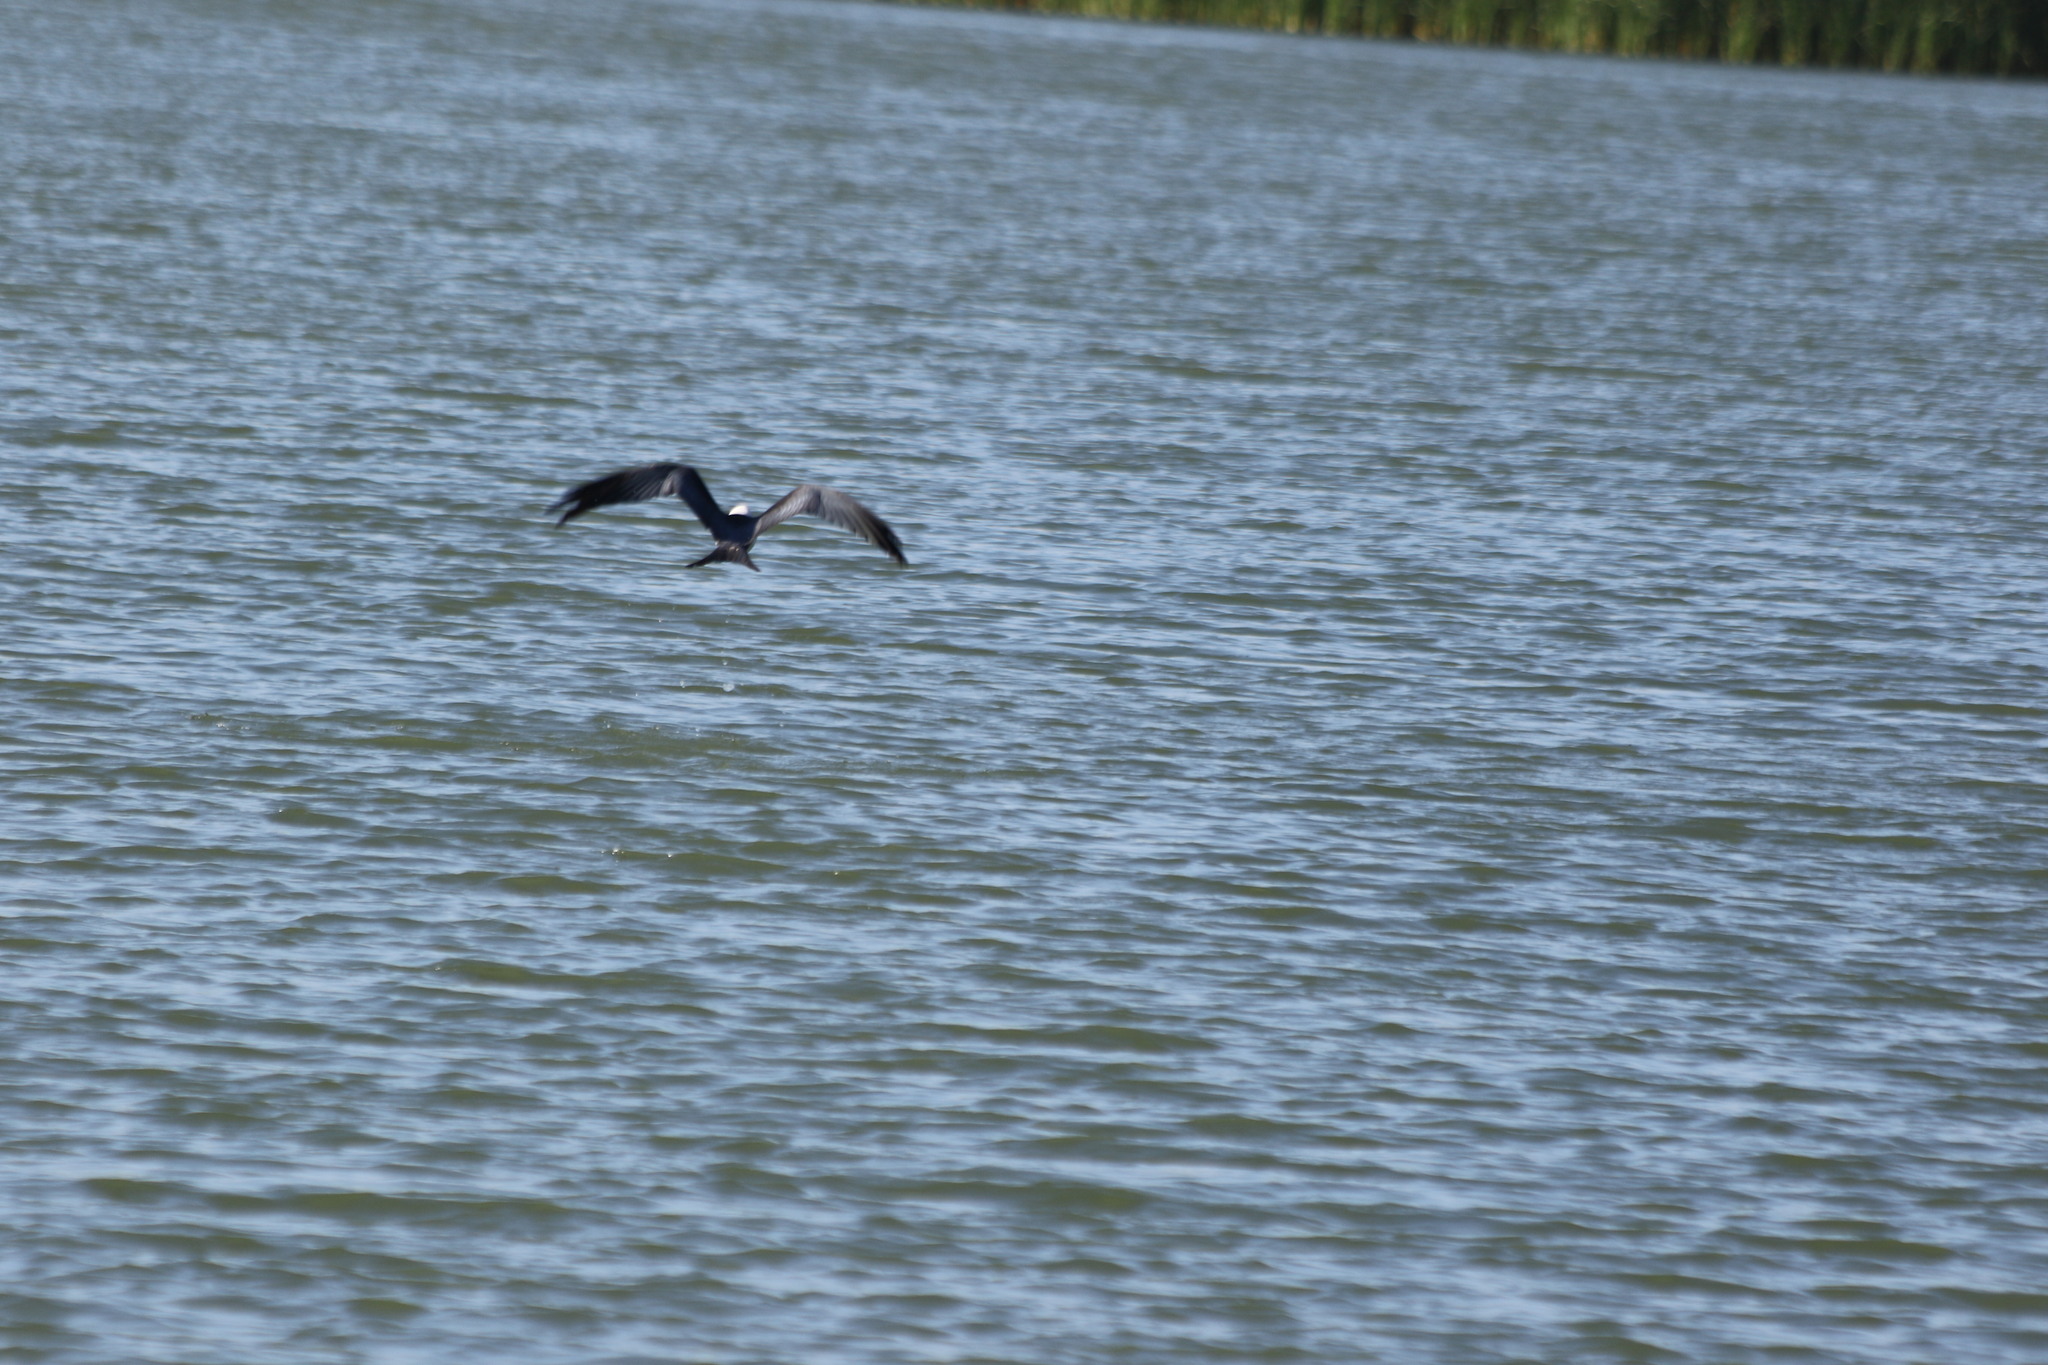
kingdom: Animalia
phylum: Chordata
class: Aves
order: Accipitriformes
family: Accipitridae
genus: Elanoides
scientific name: Elanoides forficatus
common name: Swallow-tailed kite
